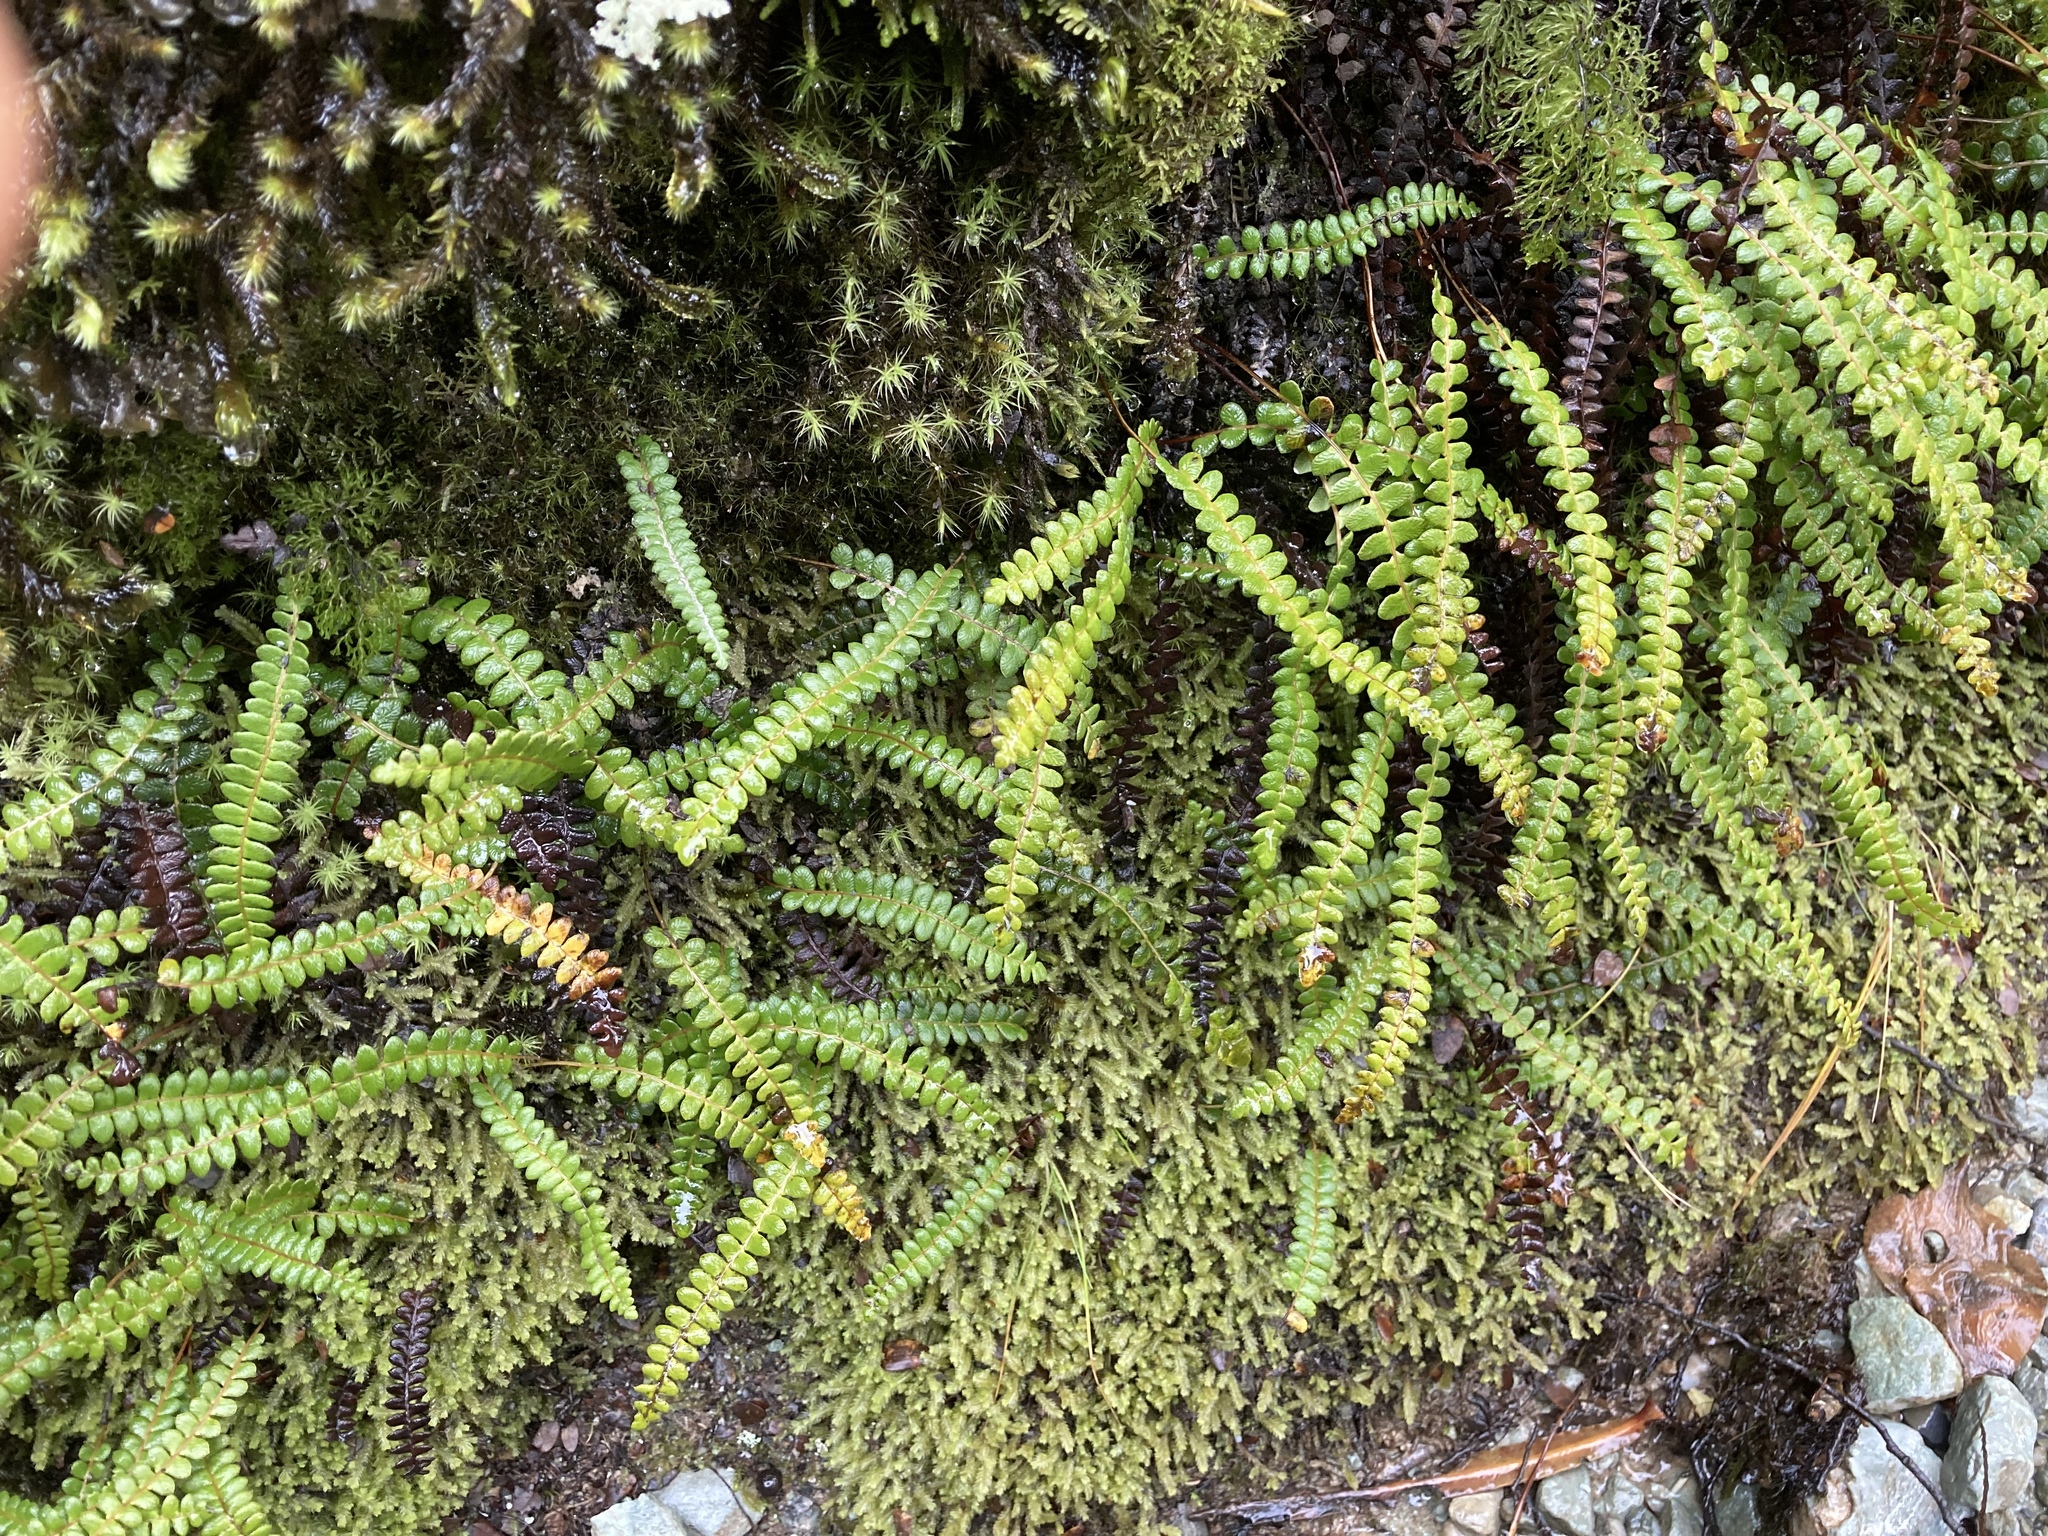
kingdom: Plantae
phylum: Tracheophyta
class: Polypodiopsida
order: Polypodiales
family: Blechnaceae
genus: Austroblechnum
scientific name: Austroblechnum penna-marina
